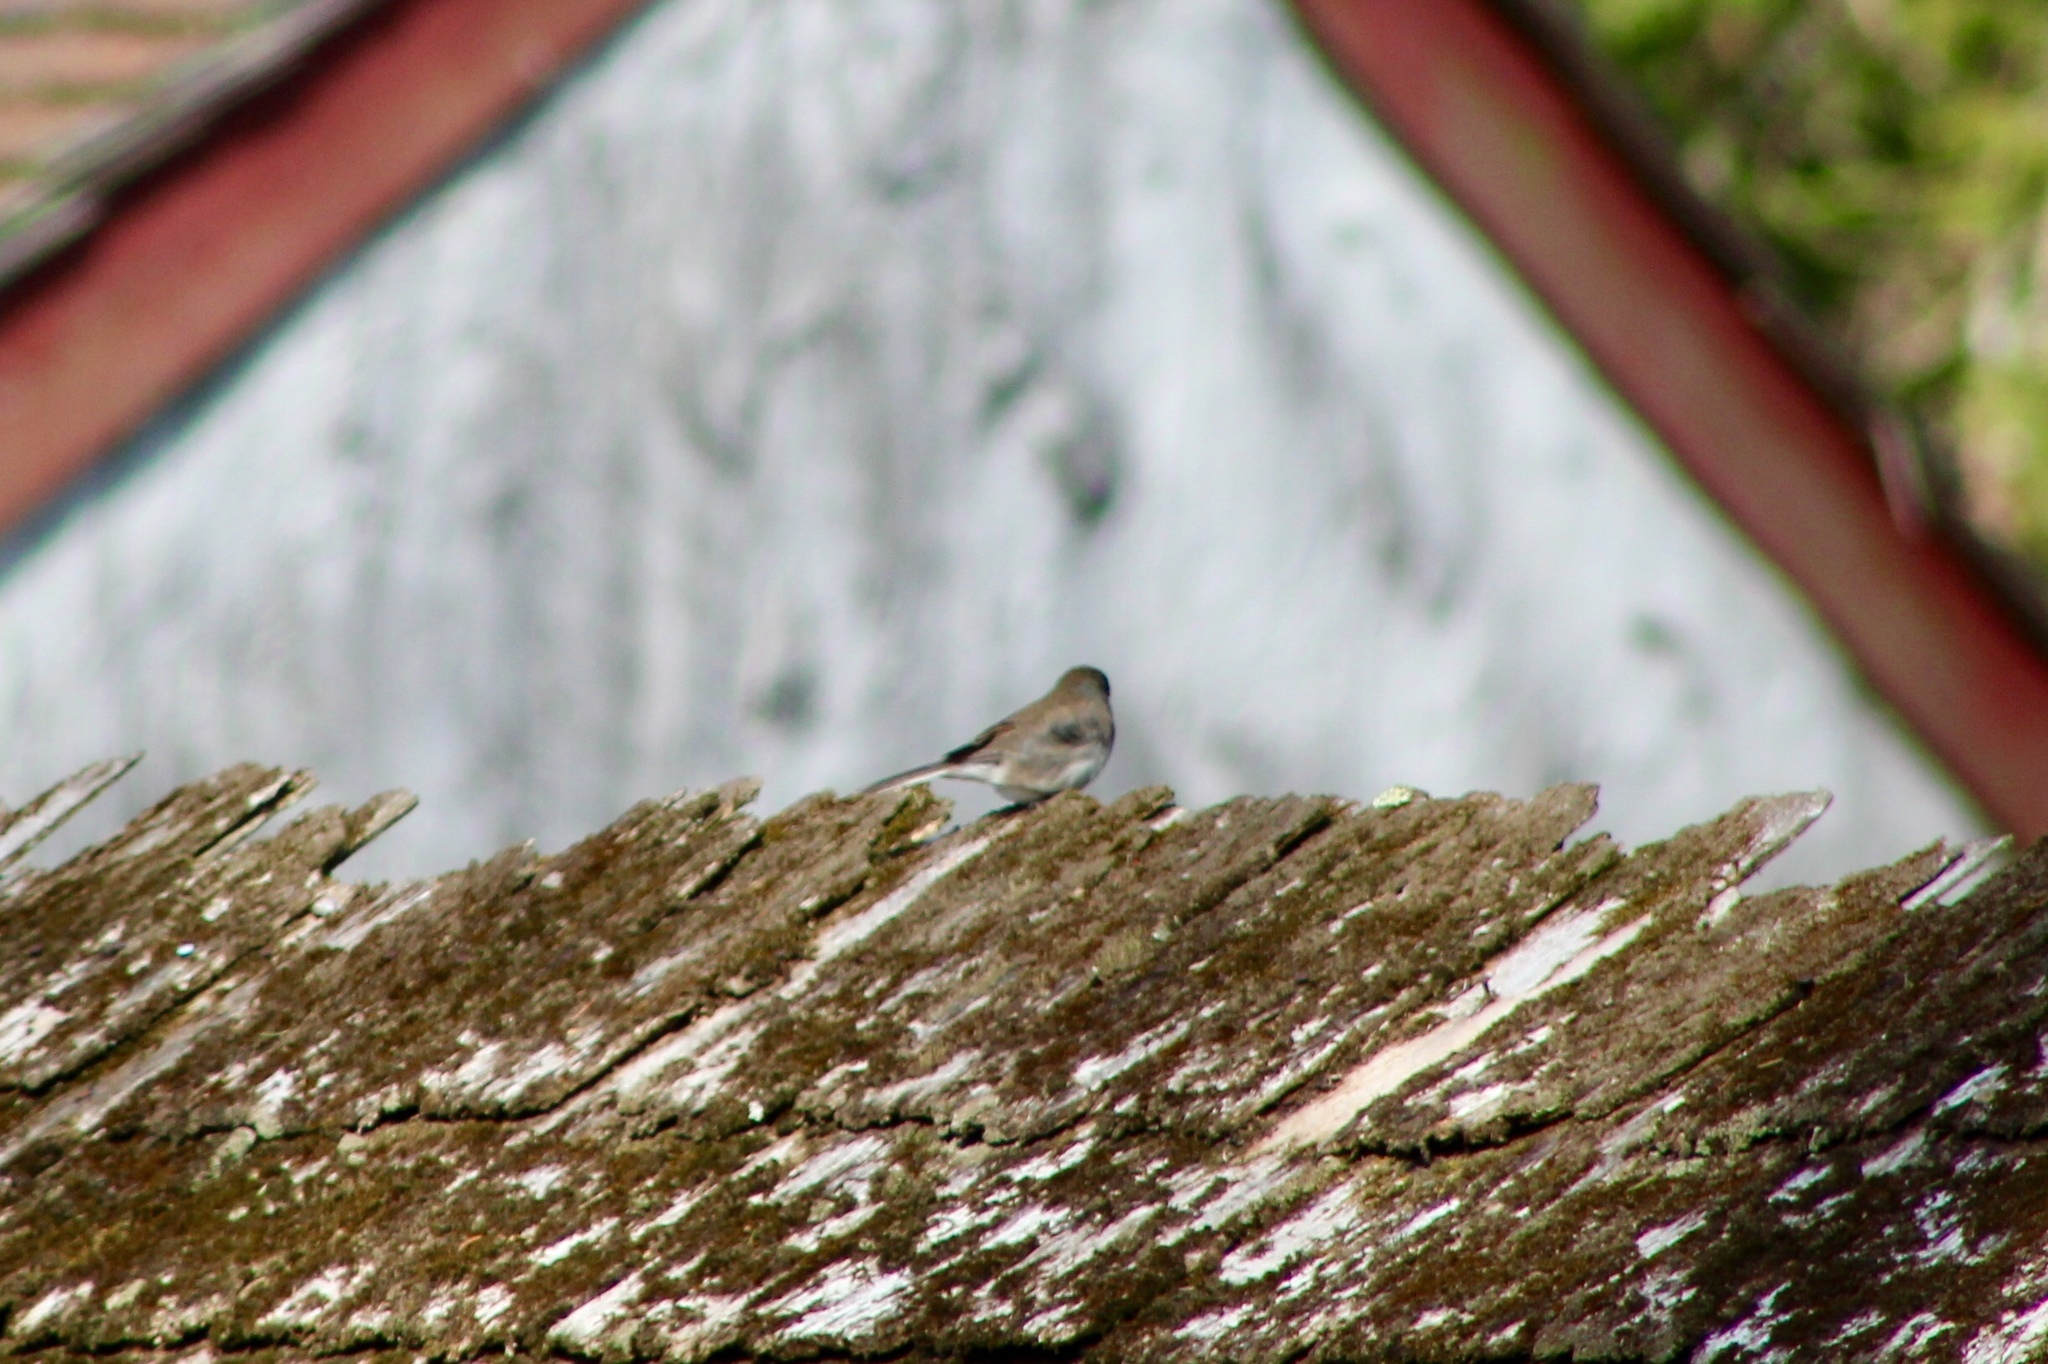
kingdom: Animalia
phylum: Chordata
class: Aves
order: Passeriformes
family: Passerellidae
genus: Junco
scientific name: Junco hyemalis
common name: Dark-eyed junco
